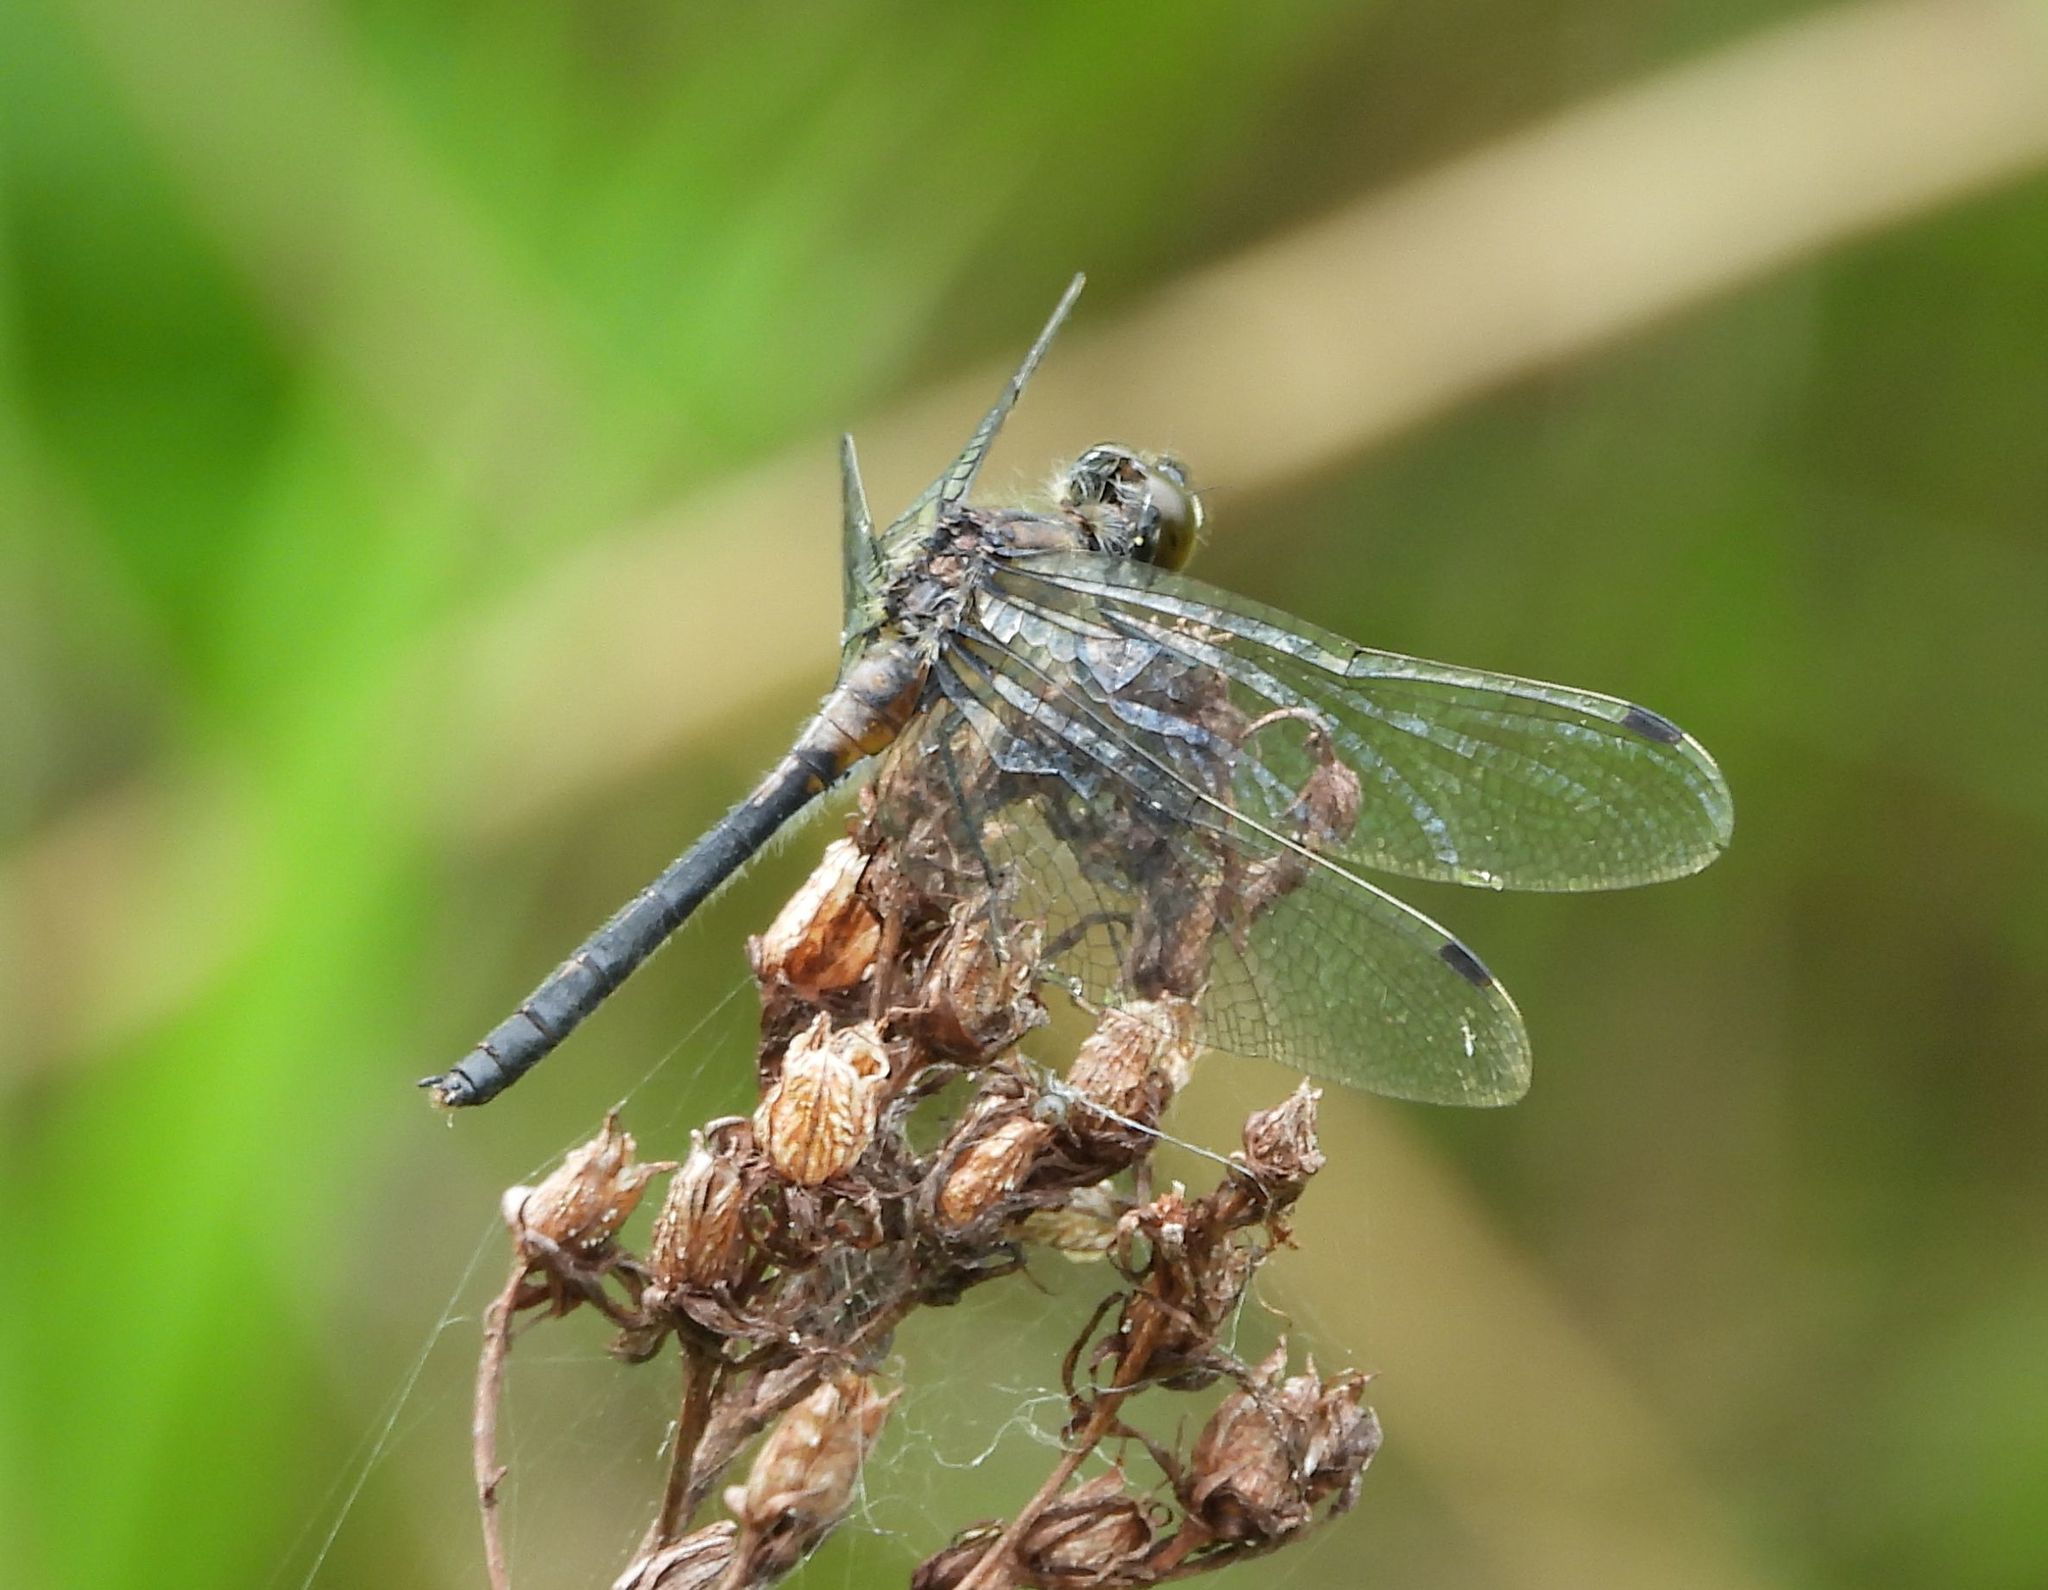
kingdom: Animalia
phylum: Arthropoda
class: Insecta
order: Odonata
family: Libellulidae
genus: Leucorrhinia
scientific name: Leucorrhinia proxima
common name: Belted whiteface
